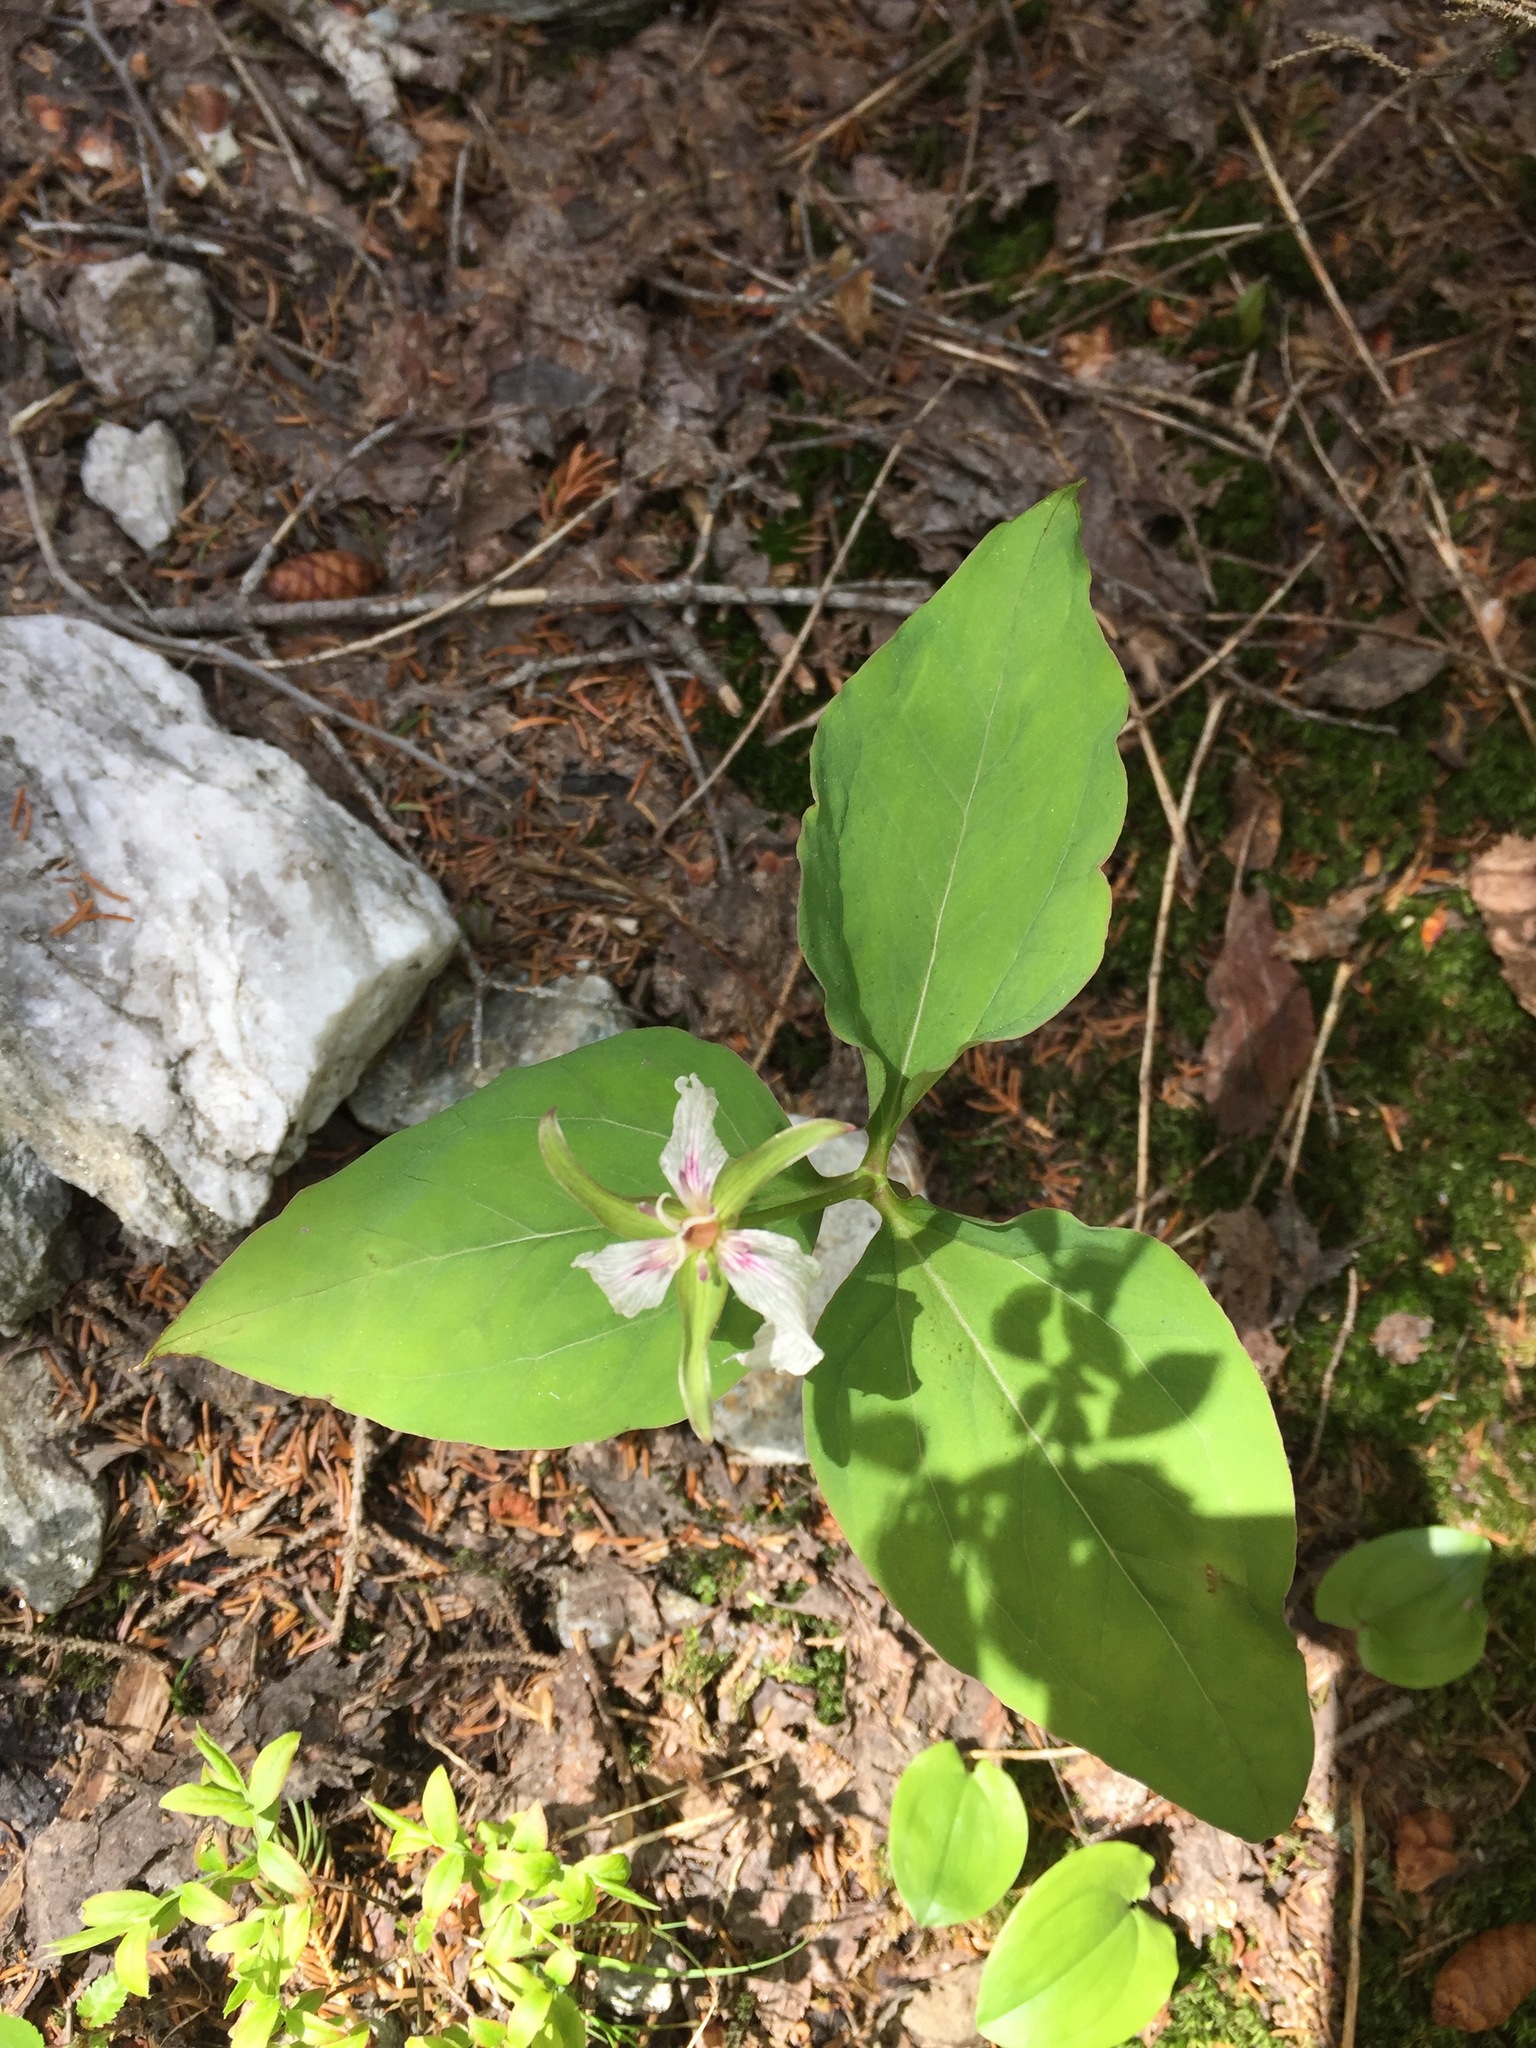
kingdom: Plantae
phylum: Tracheophyta
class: Liliopsida
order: Liliales
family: Melanthiaceae
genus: Trillium
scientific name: Trillium undulatum
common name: Paint trillium
